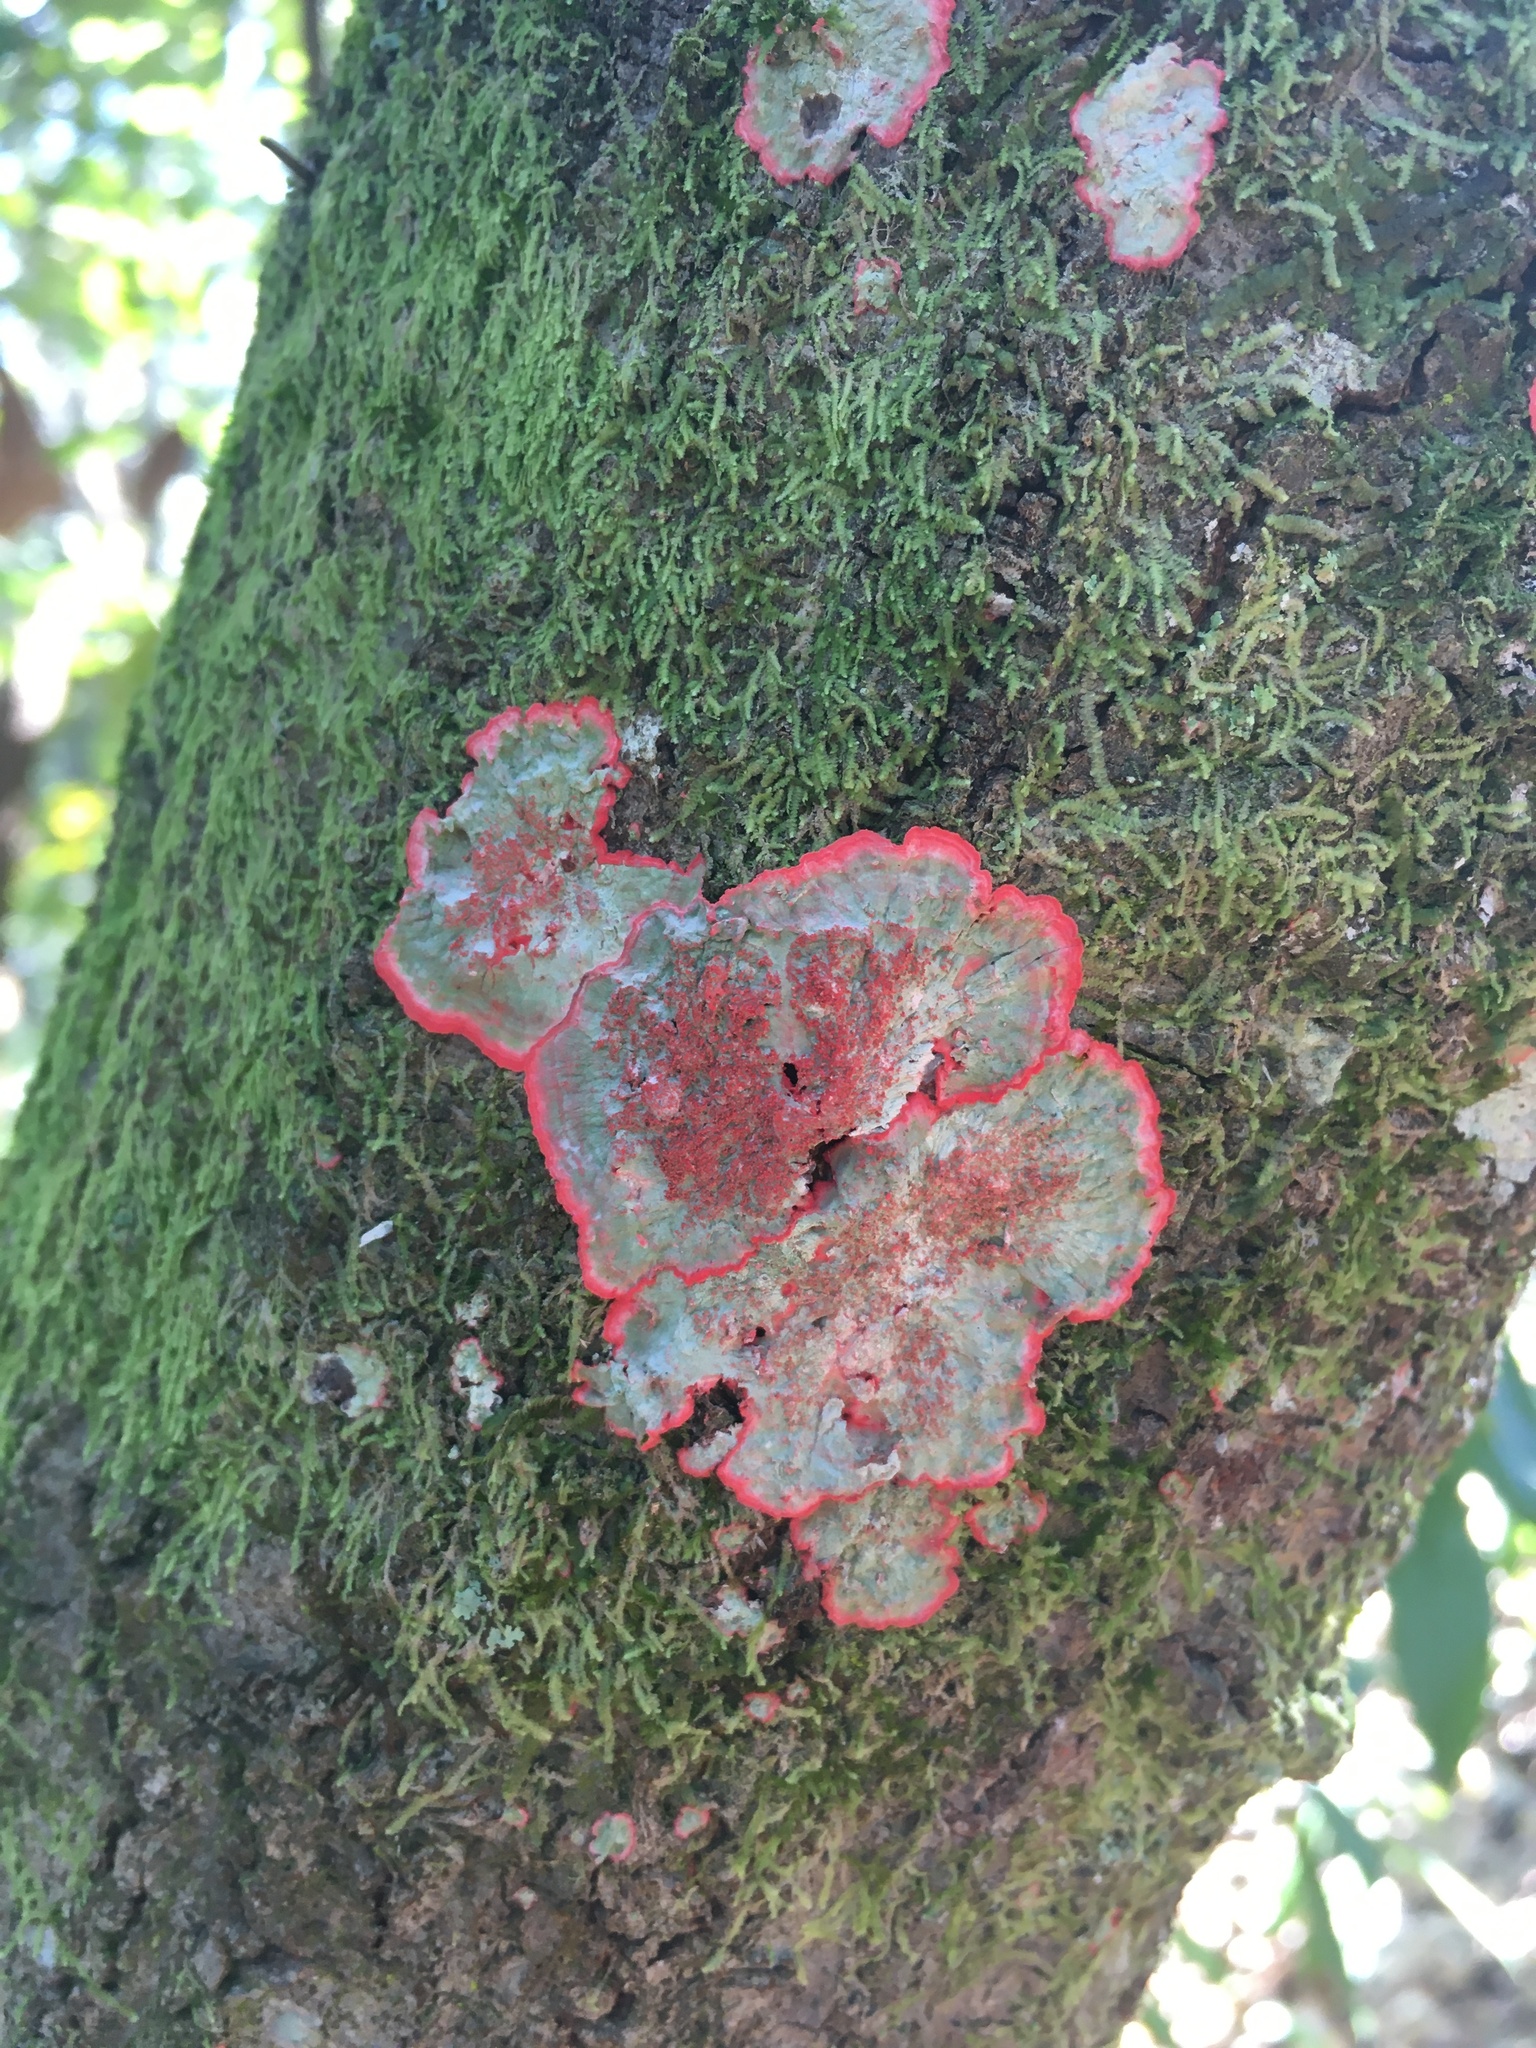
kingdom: Fungi
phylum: Ascomycota
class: Arthoniomycetes
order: Arthoniales
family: Arthoniaceae
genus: Herpothallon
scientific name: Herpothallon rubrocinctum
